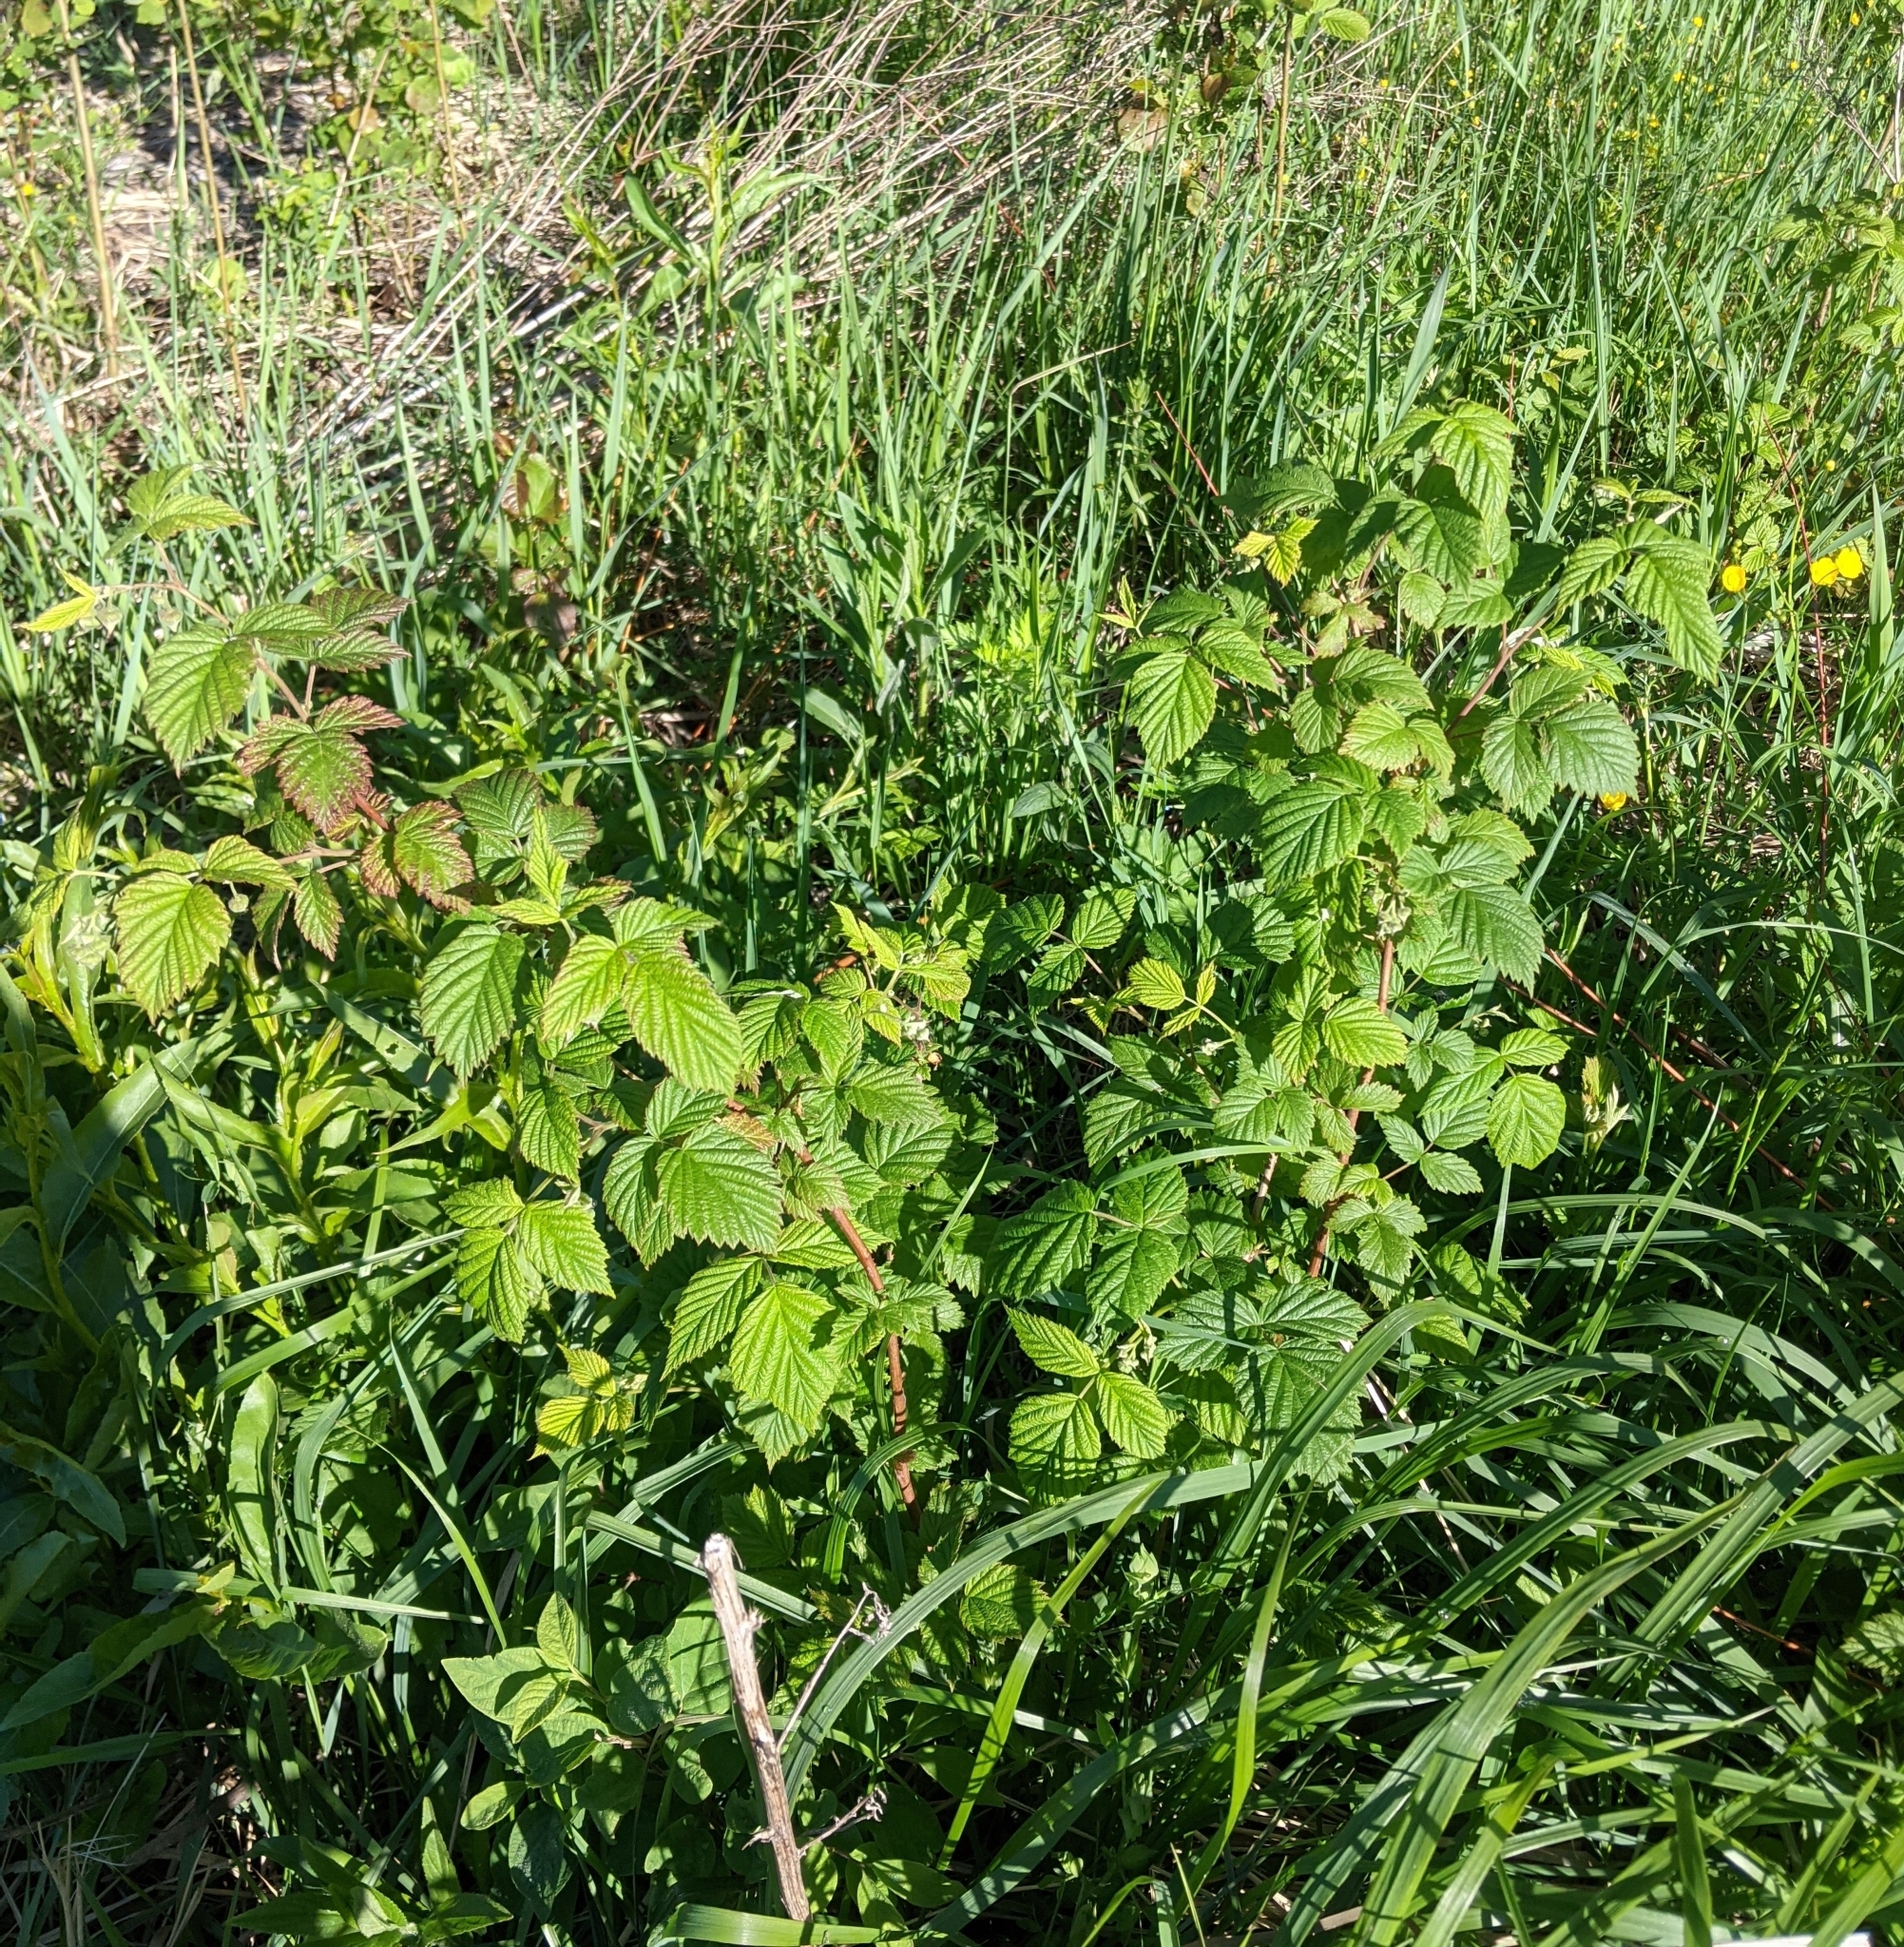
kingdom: Plantae
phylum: Tracheophyta
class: Magnoliopsida
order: Rosales
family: Rosaceae
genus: Rubus
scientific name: Rubus idaeus
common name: Raspberry
